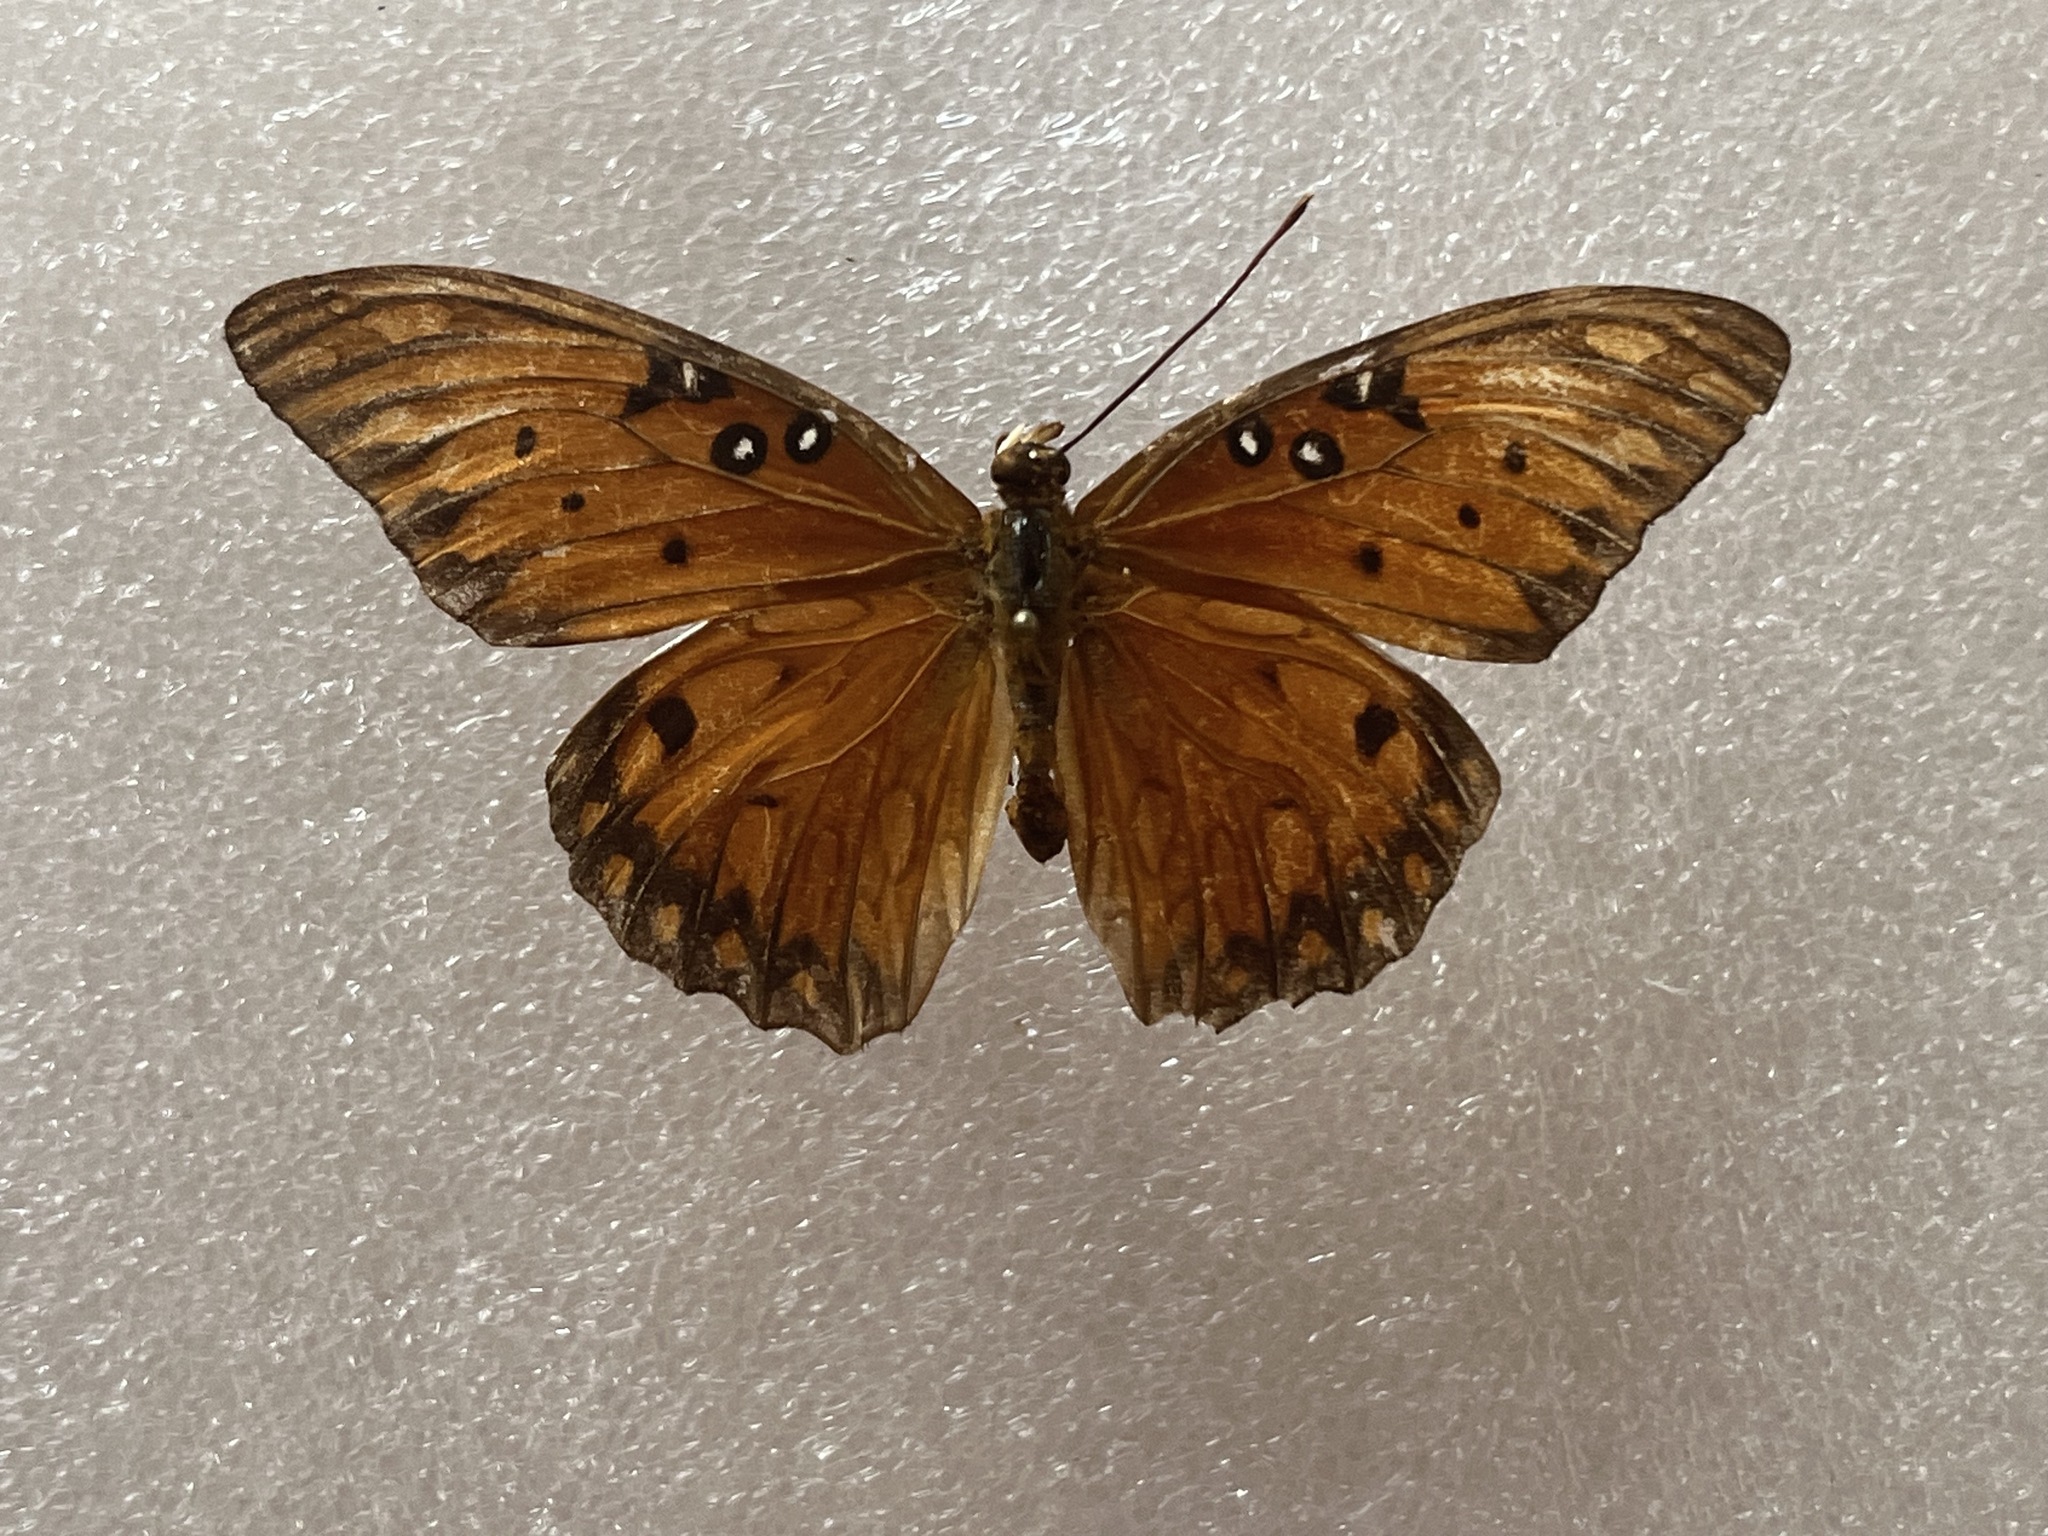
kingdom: Animalia
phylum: Arthropoda
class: Insecta
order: Lepidoptera
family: Nymphalidae
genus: Dione
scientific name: Dione vanillae
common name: Gulf fritillary
